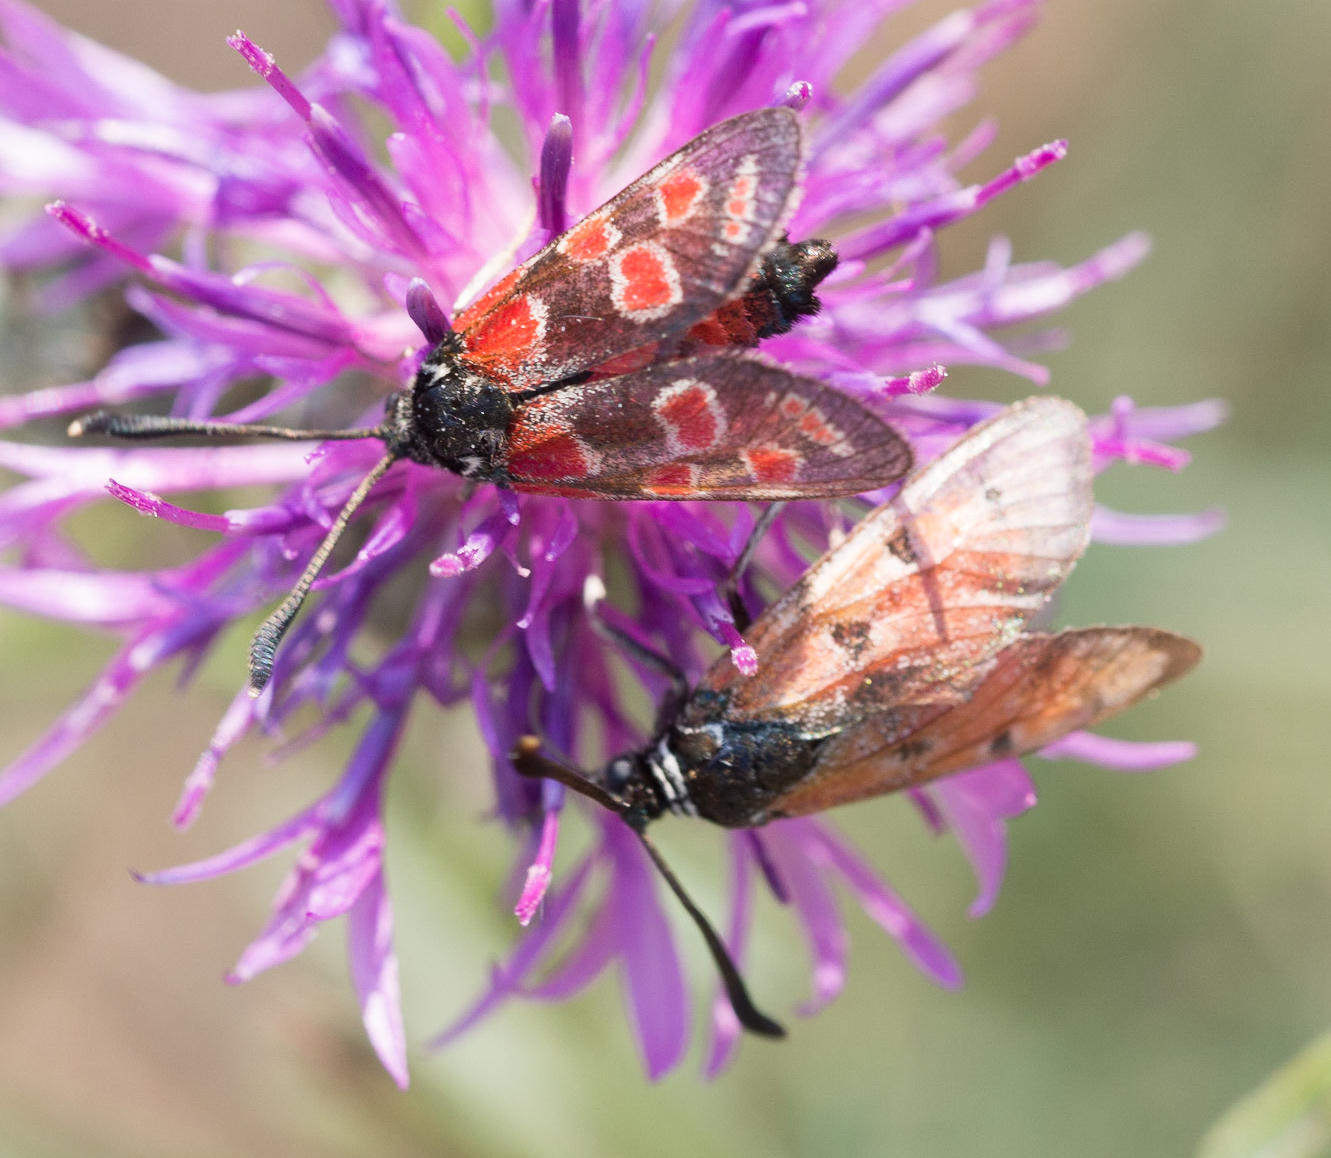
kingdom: Animalia
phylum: Arthropoda
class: Insecta
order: Lepidoptera
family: Zygaenidae
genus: Zygaena
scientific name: Zygaena carniolica
